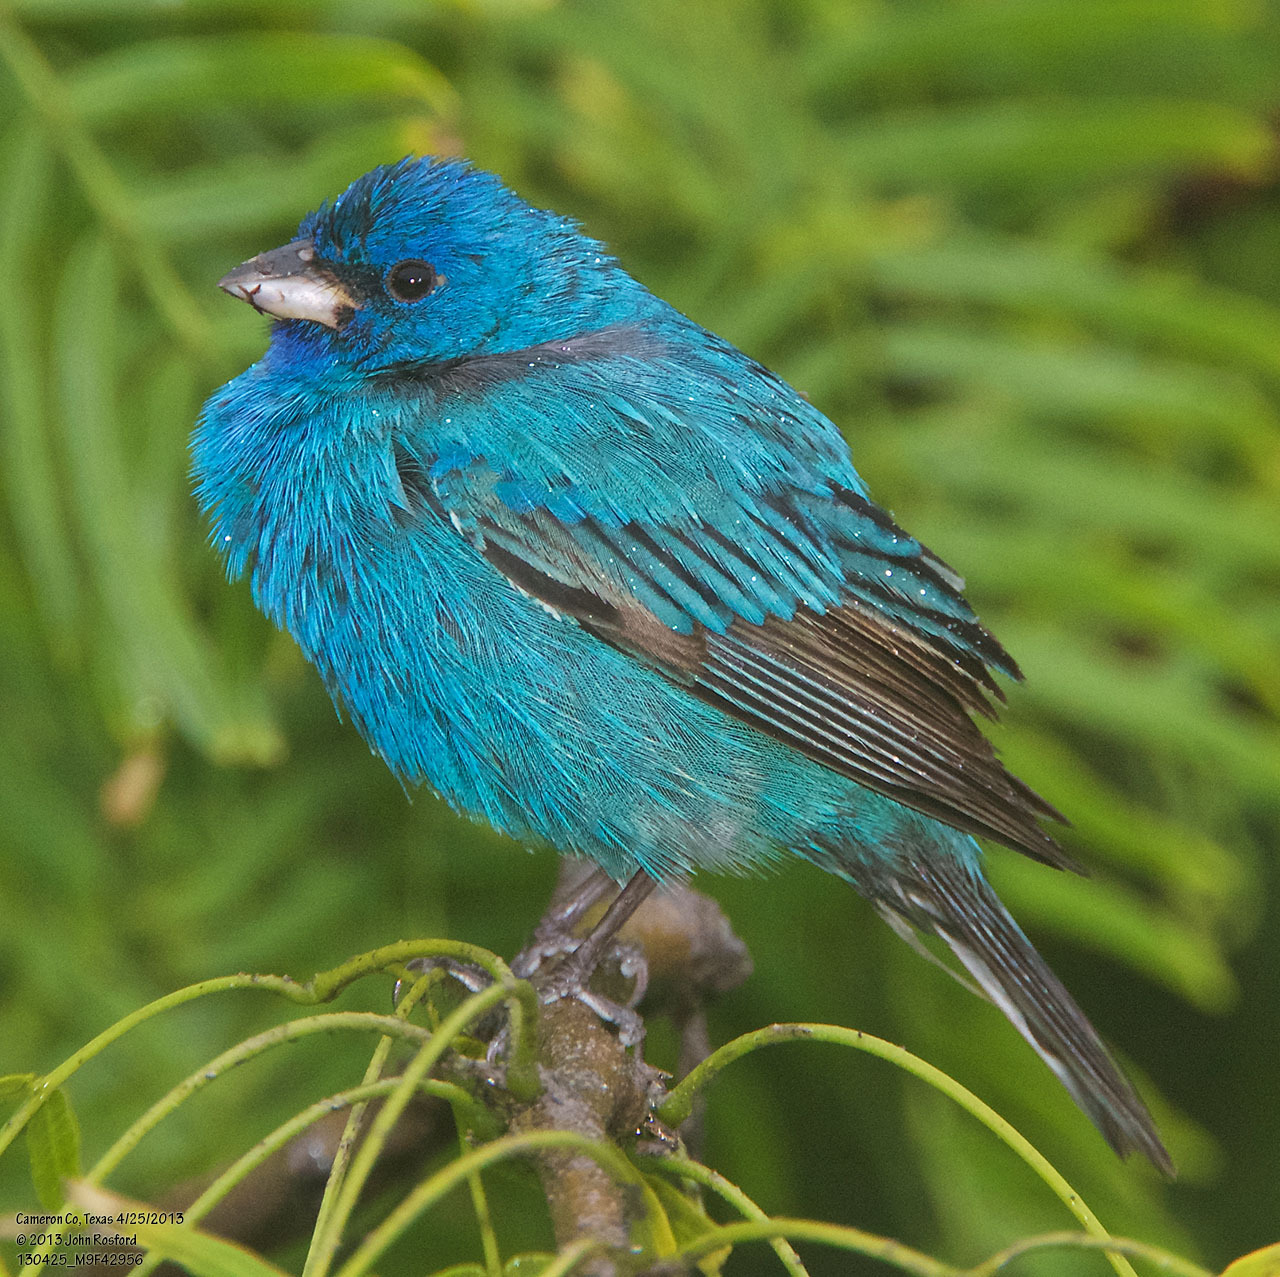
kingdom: Animalia
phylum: Chordata
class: Aves
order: Passeriformes
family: Cardinalidae
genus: Passerina
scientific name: Passerina cyanea
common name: Indigo bunting
